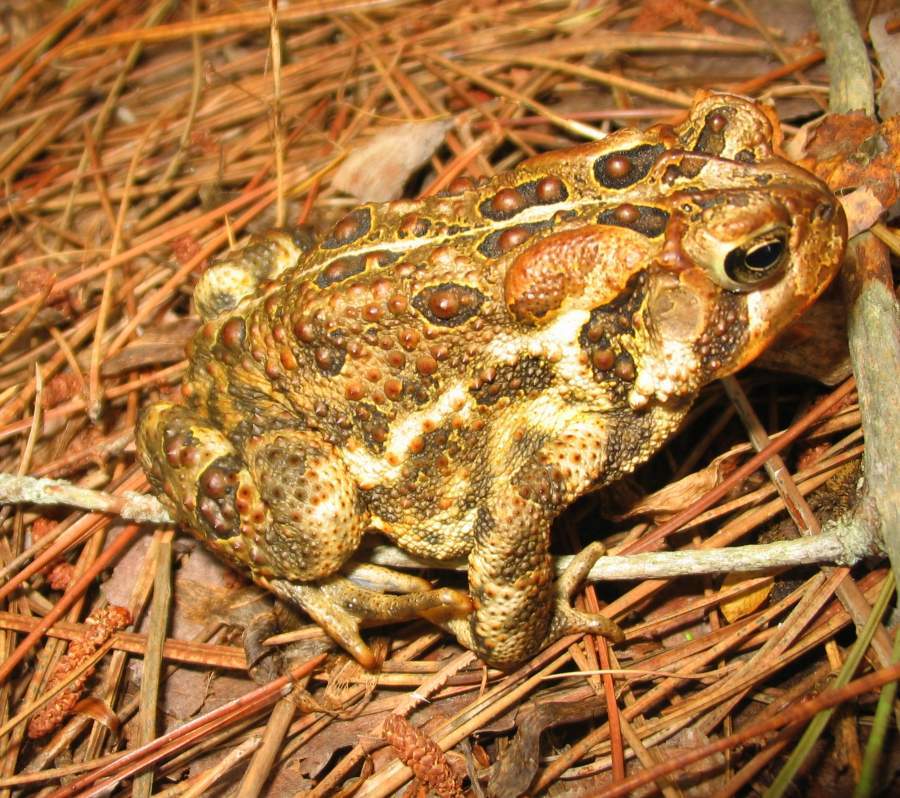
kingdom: Animalia
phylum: Chordata
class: Amphibia
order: Anura
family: Bufonidae
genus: Anaxyrus
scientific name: Anaxyrus americanus
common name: American toad
